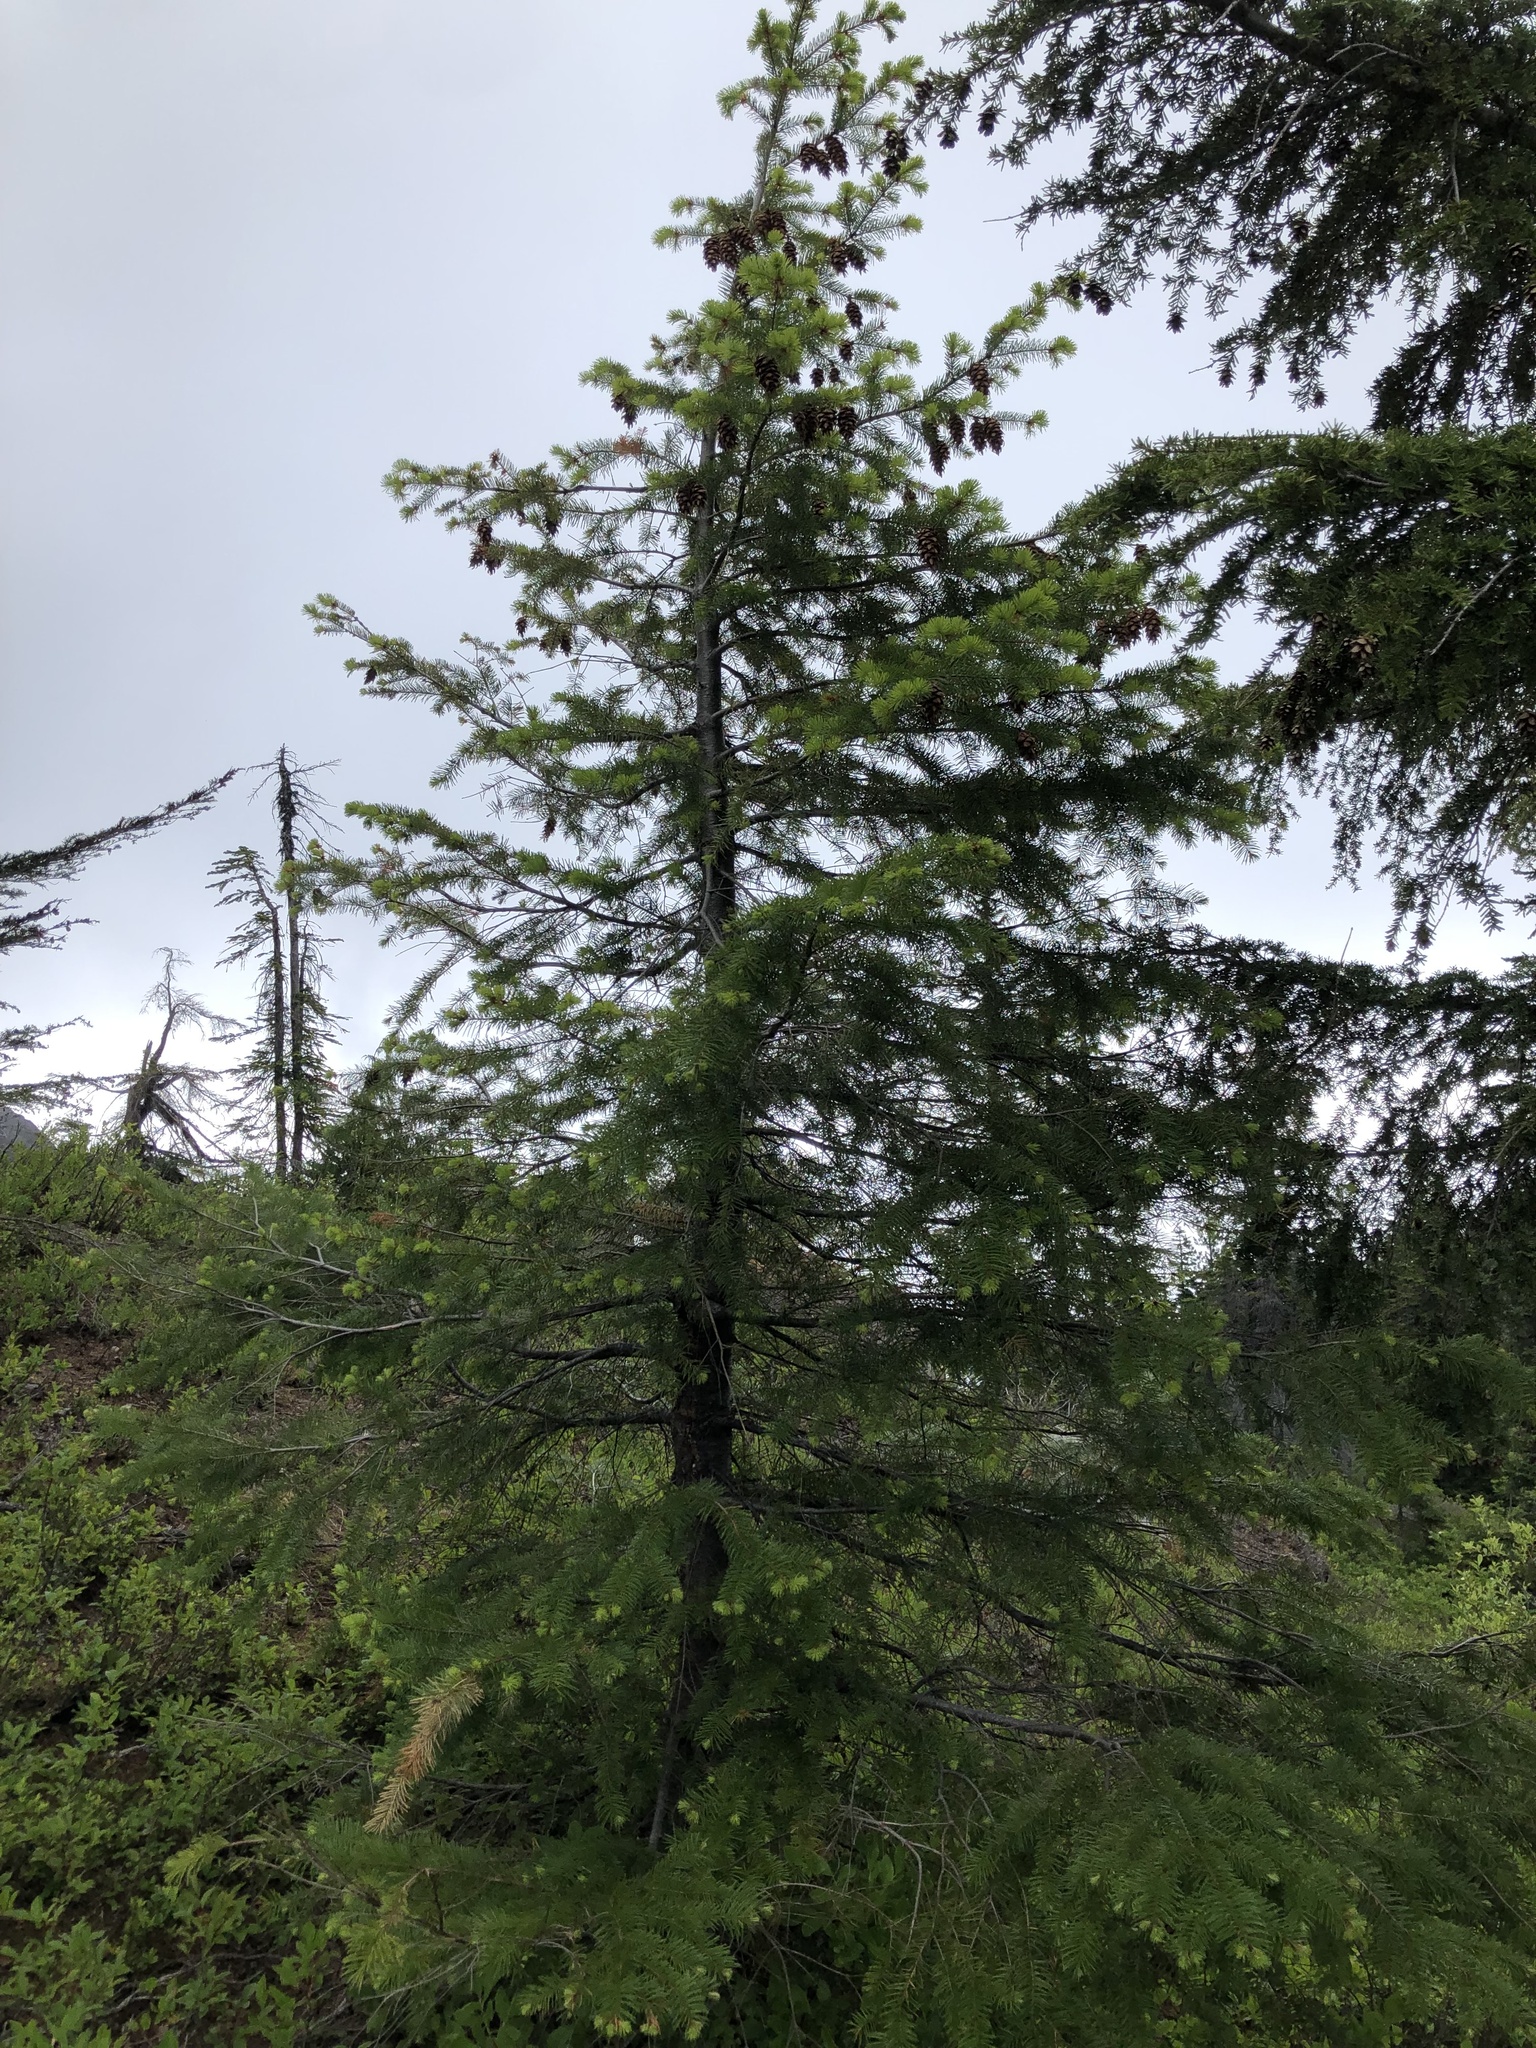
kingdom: Plantae
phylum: Tracheophyta
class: Pinopsida
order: Pinales
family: Pinaceae
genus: Pseudotsuga
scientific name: Pseudotsuga menziesii
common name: Douglas fir
